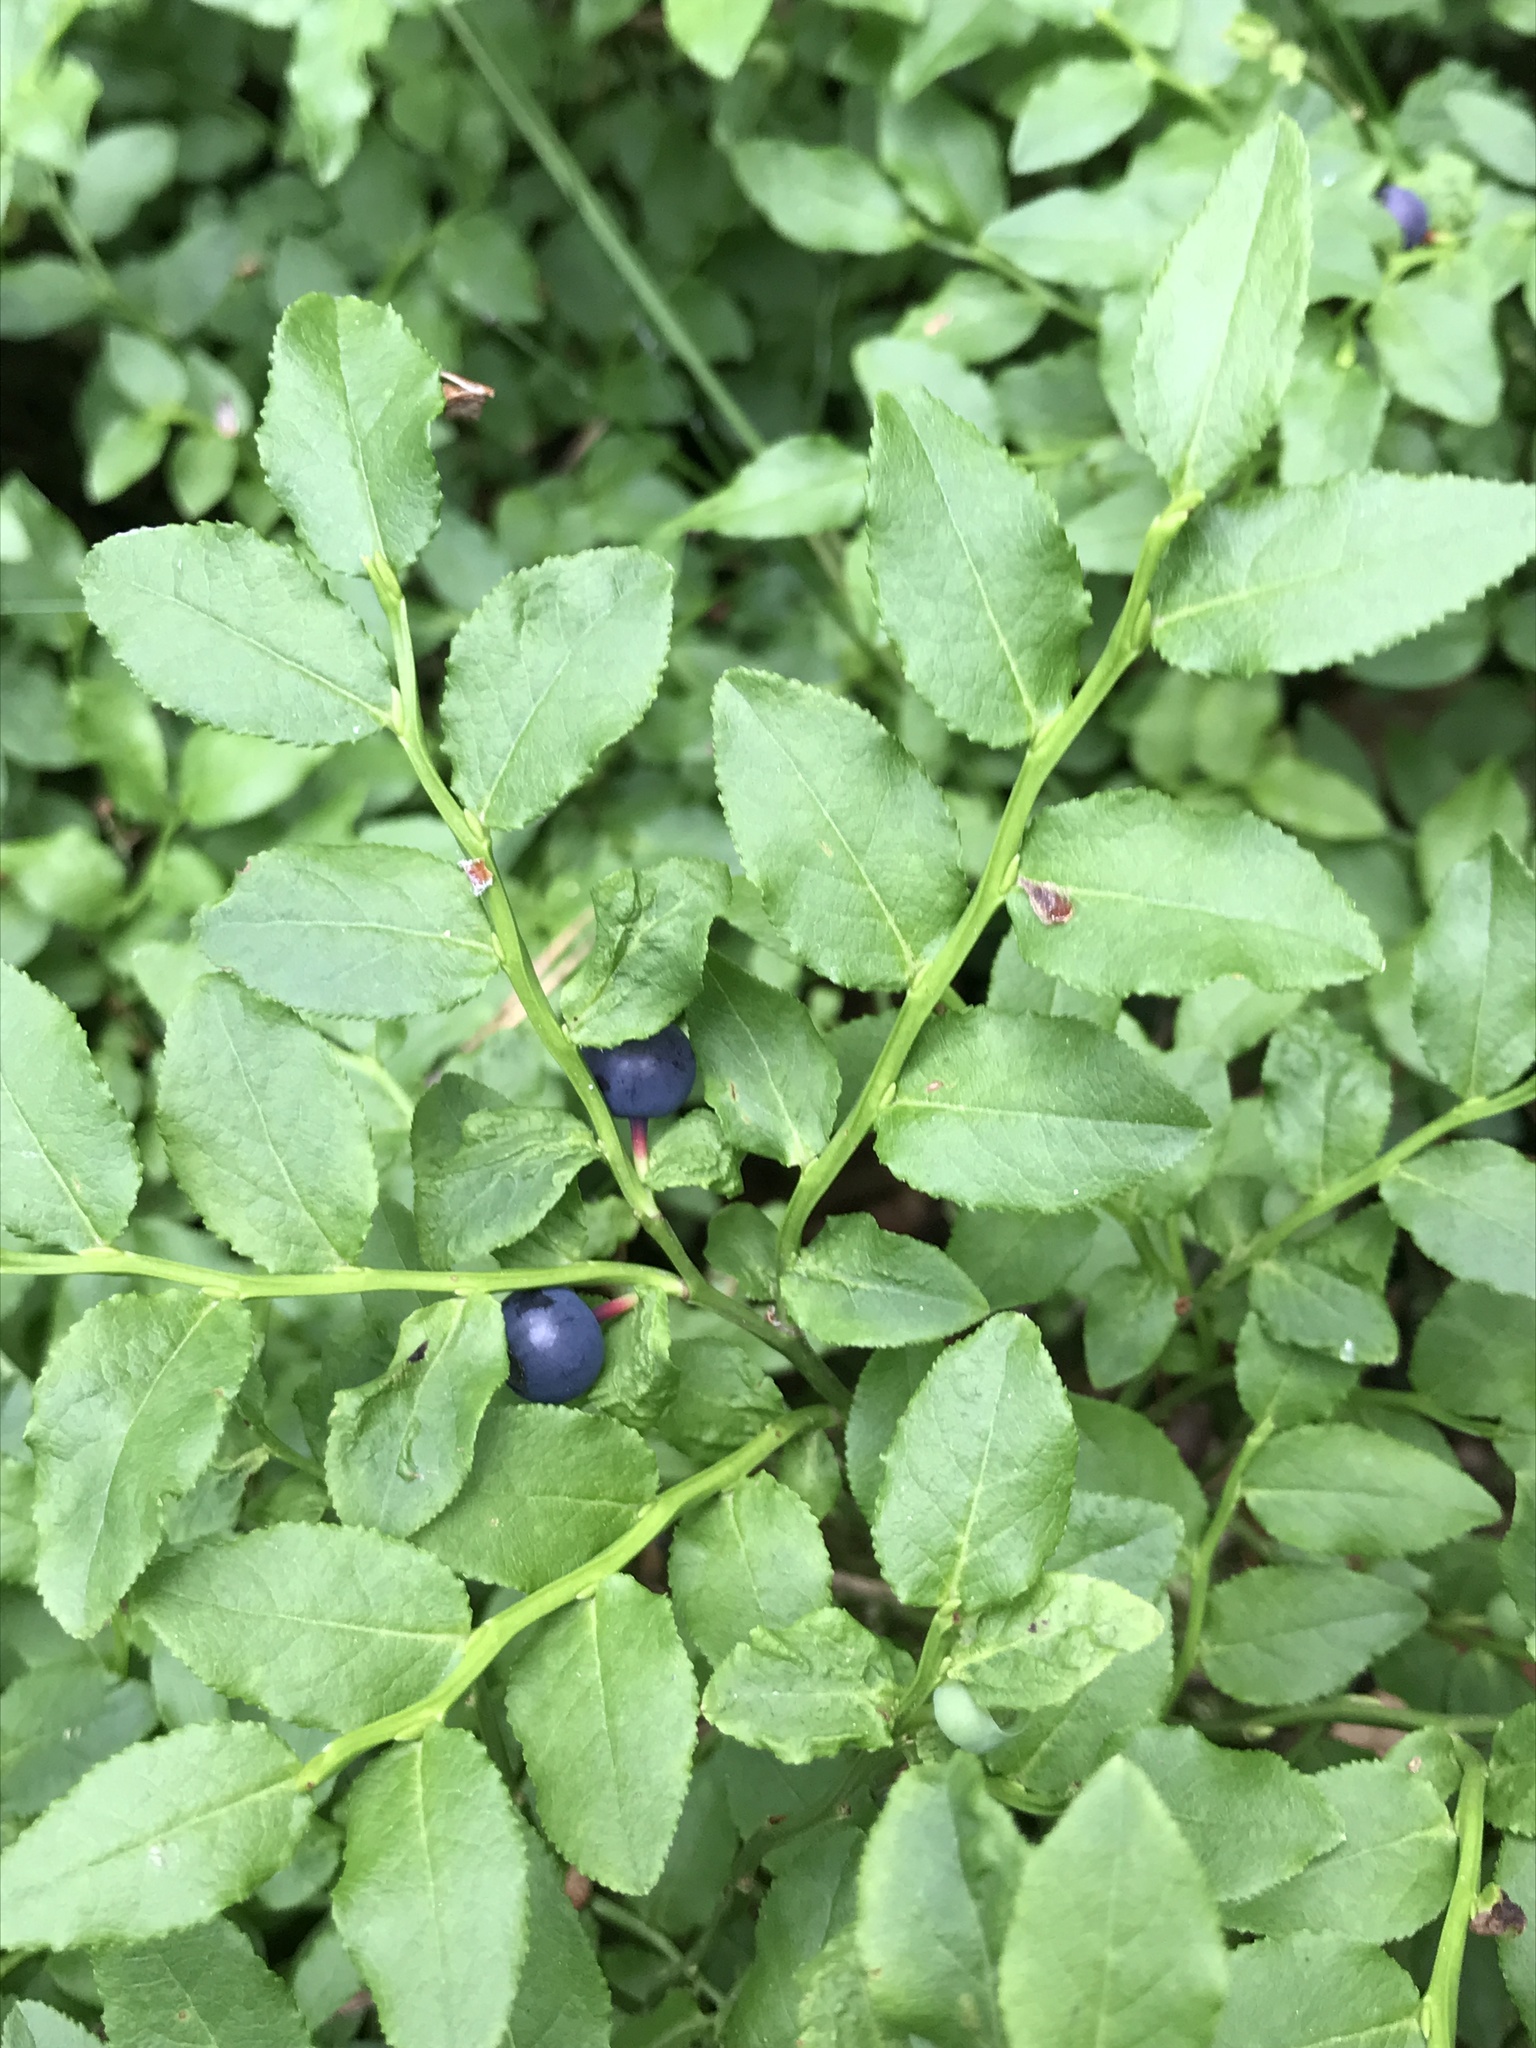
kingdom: Plantae
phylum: Tracheophyta
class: Magnoliopsida
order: Ericales
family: Ericaceae
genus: Vaccinium
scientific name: Vaccinium myrtillus
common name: Bilberry
